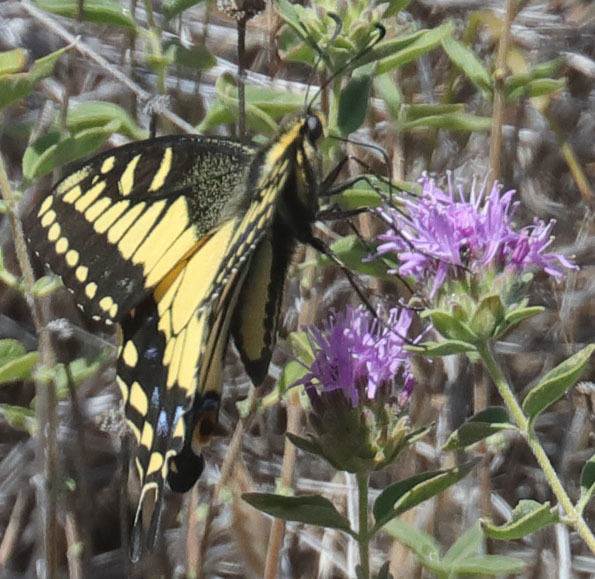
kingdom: Animalia
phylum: Arthropoda
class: Insecta
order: Lepidoptera
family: Papilionidae
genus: Papilio
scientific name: Papilio zelicaon
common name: Anise swallowtail
